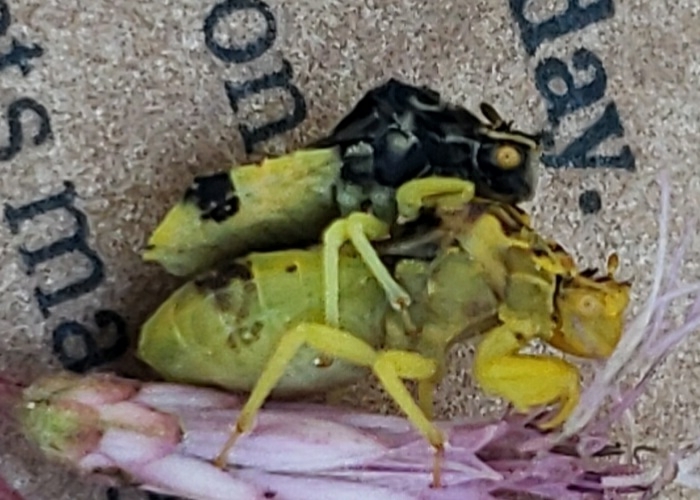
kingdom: Animalia
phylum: Arthropoda
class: Insecta
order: Hemiptera
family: Reduviidae
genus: Phymata
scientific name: Phymata americana
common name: Jagged ambush bug
